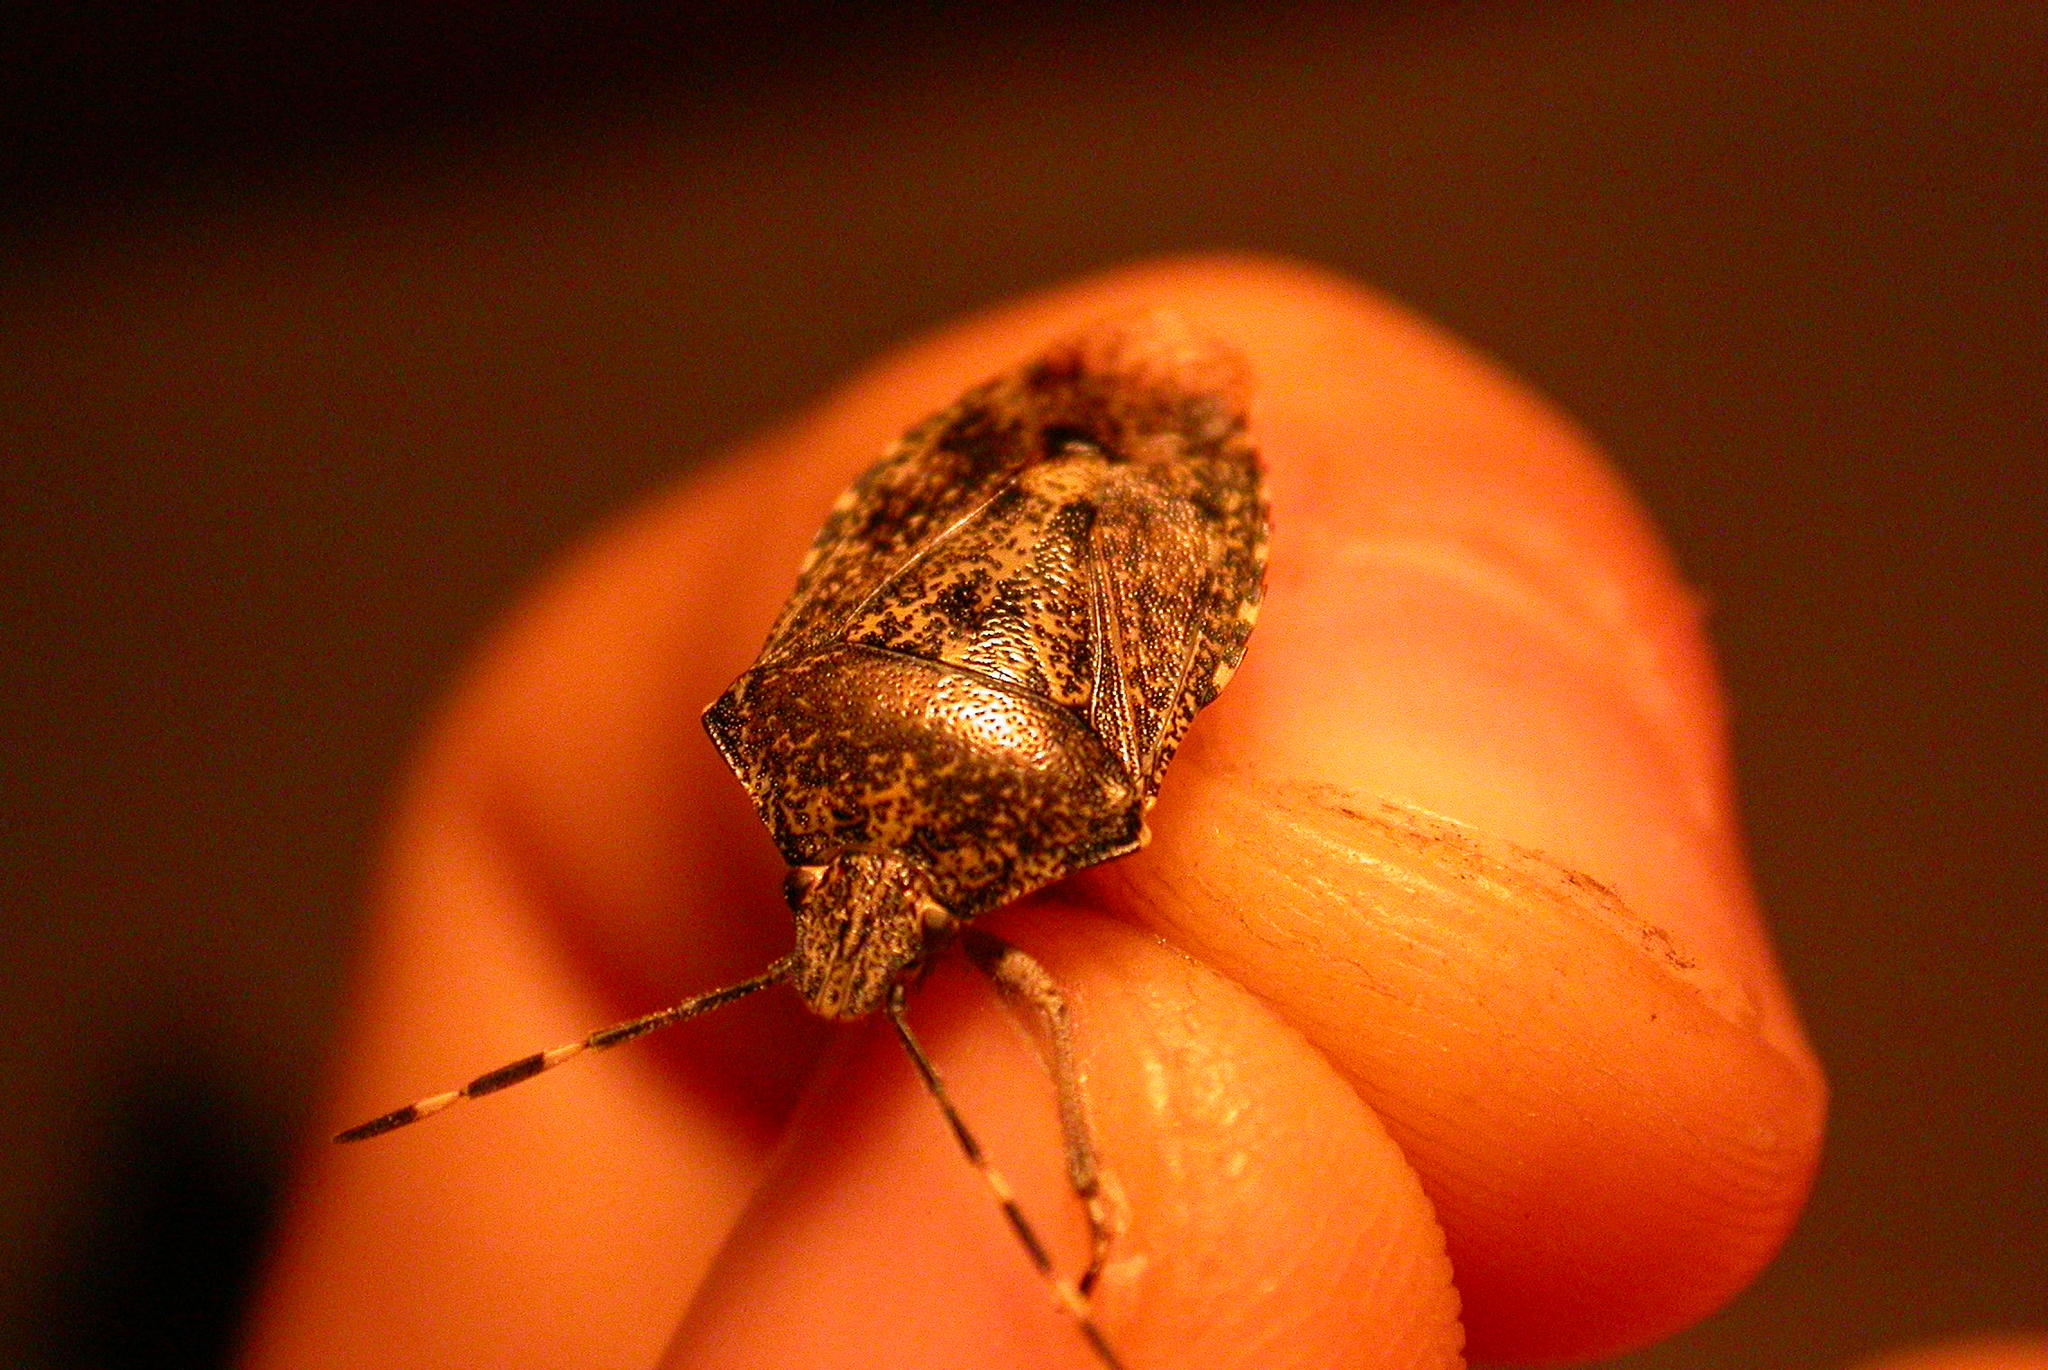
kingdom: Animalia
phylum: Arthropoda
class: Insecta
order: Hemiptera
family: Pentatomidae
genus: Rhaphigaster
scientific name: Rhaphigaster nebulosa
